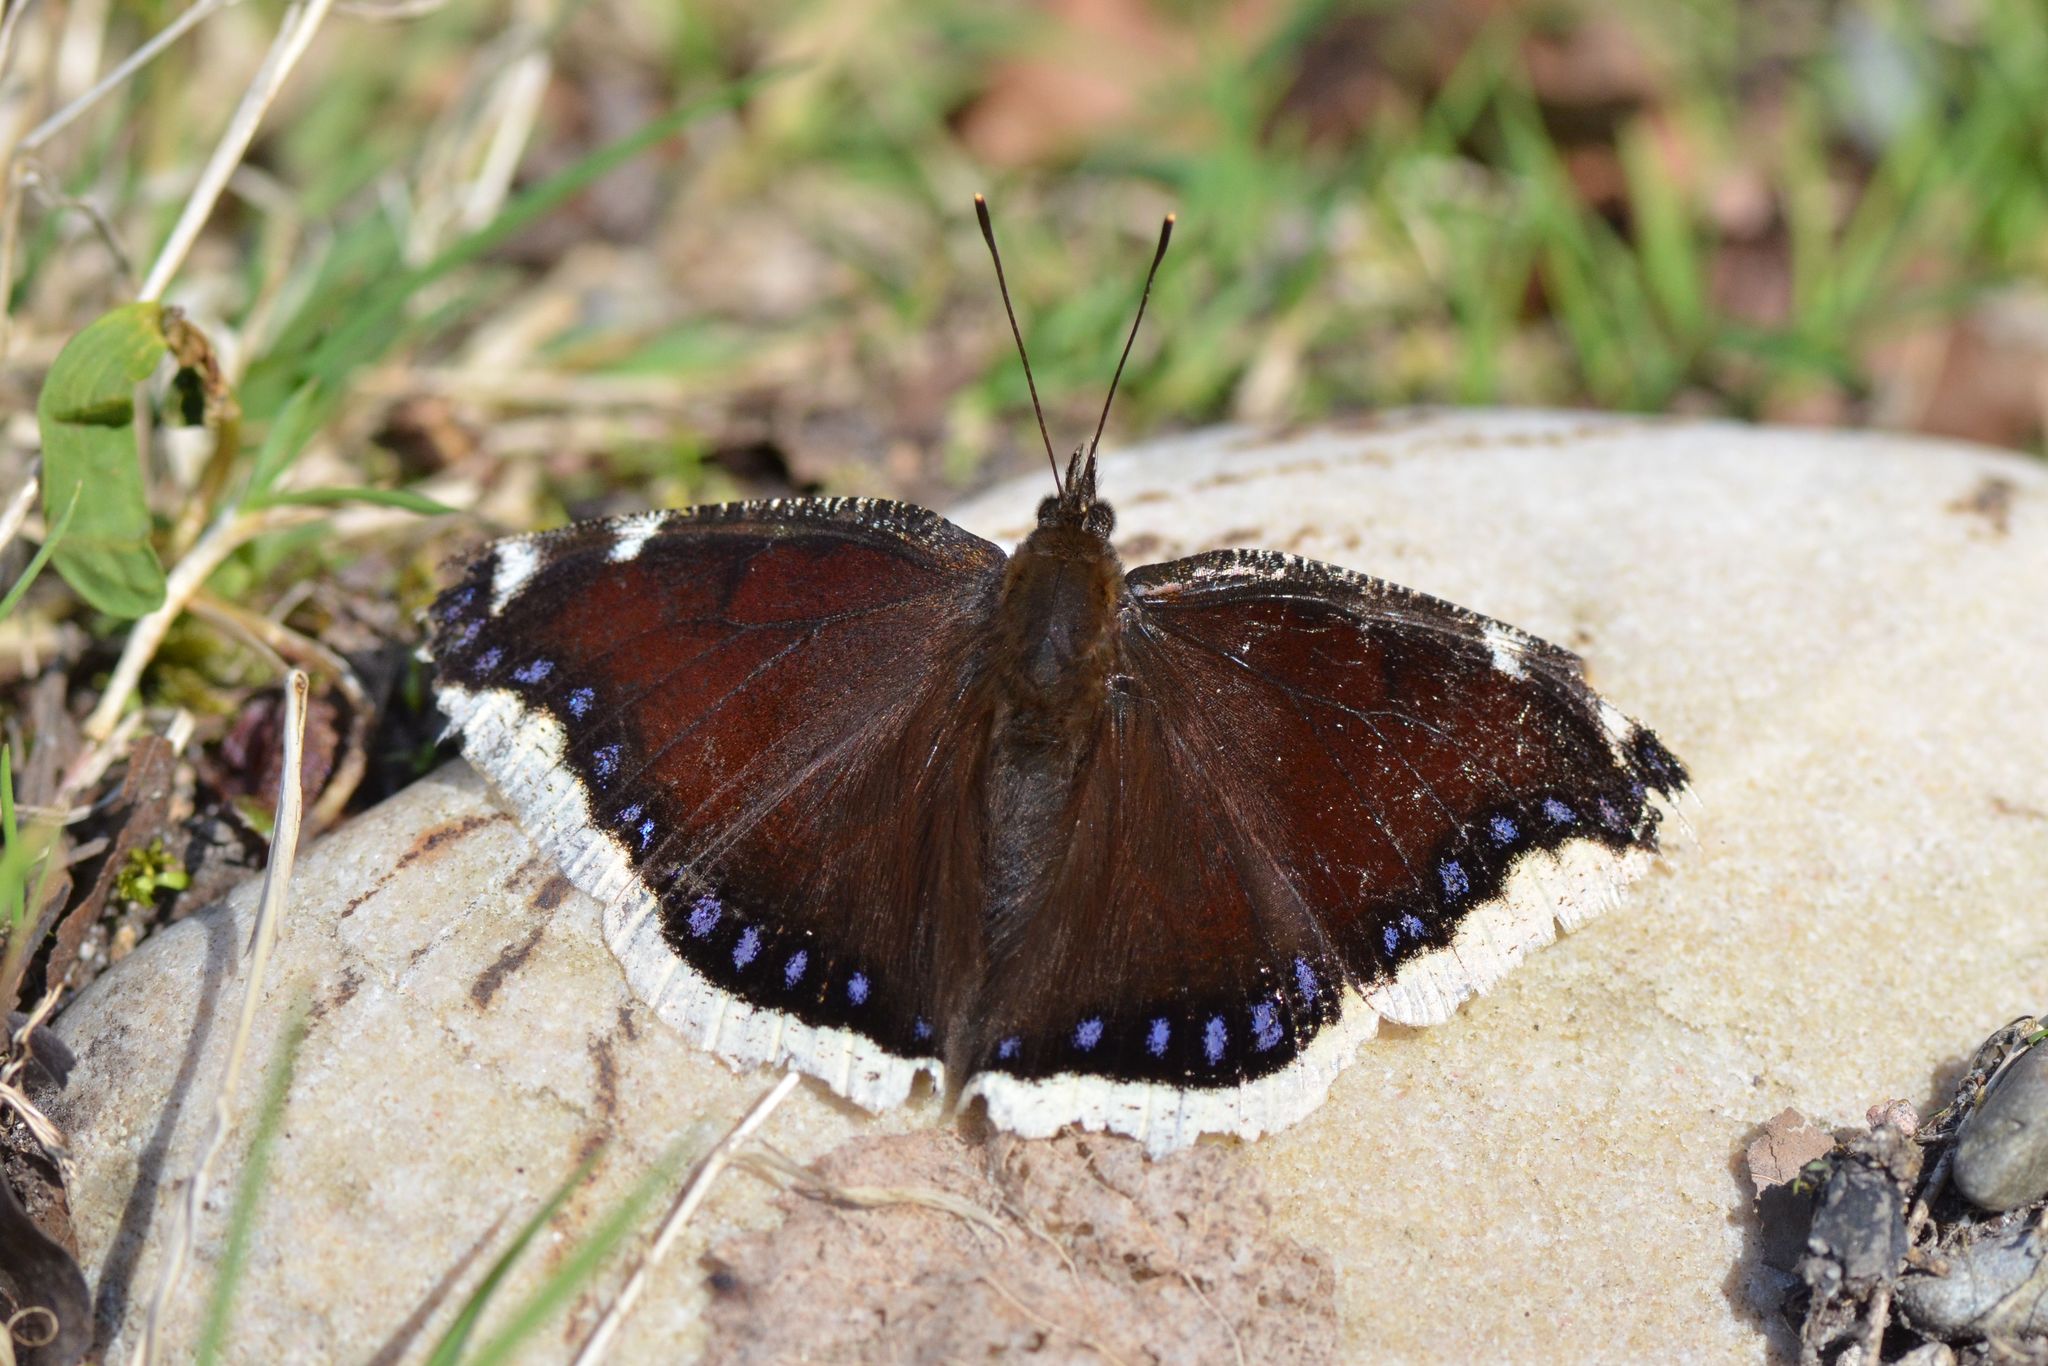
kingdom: Animalia
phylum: Arthropoda
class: Insecta
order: Lepidoptera
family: Nymphalidae
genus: Nymphalis
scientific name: Nymphalis antiopa
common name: Camberwell beauty
